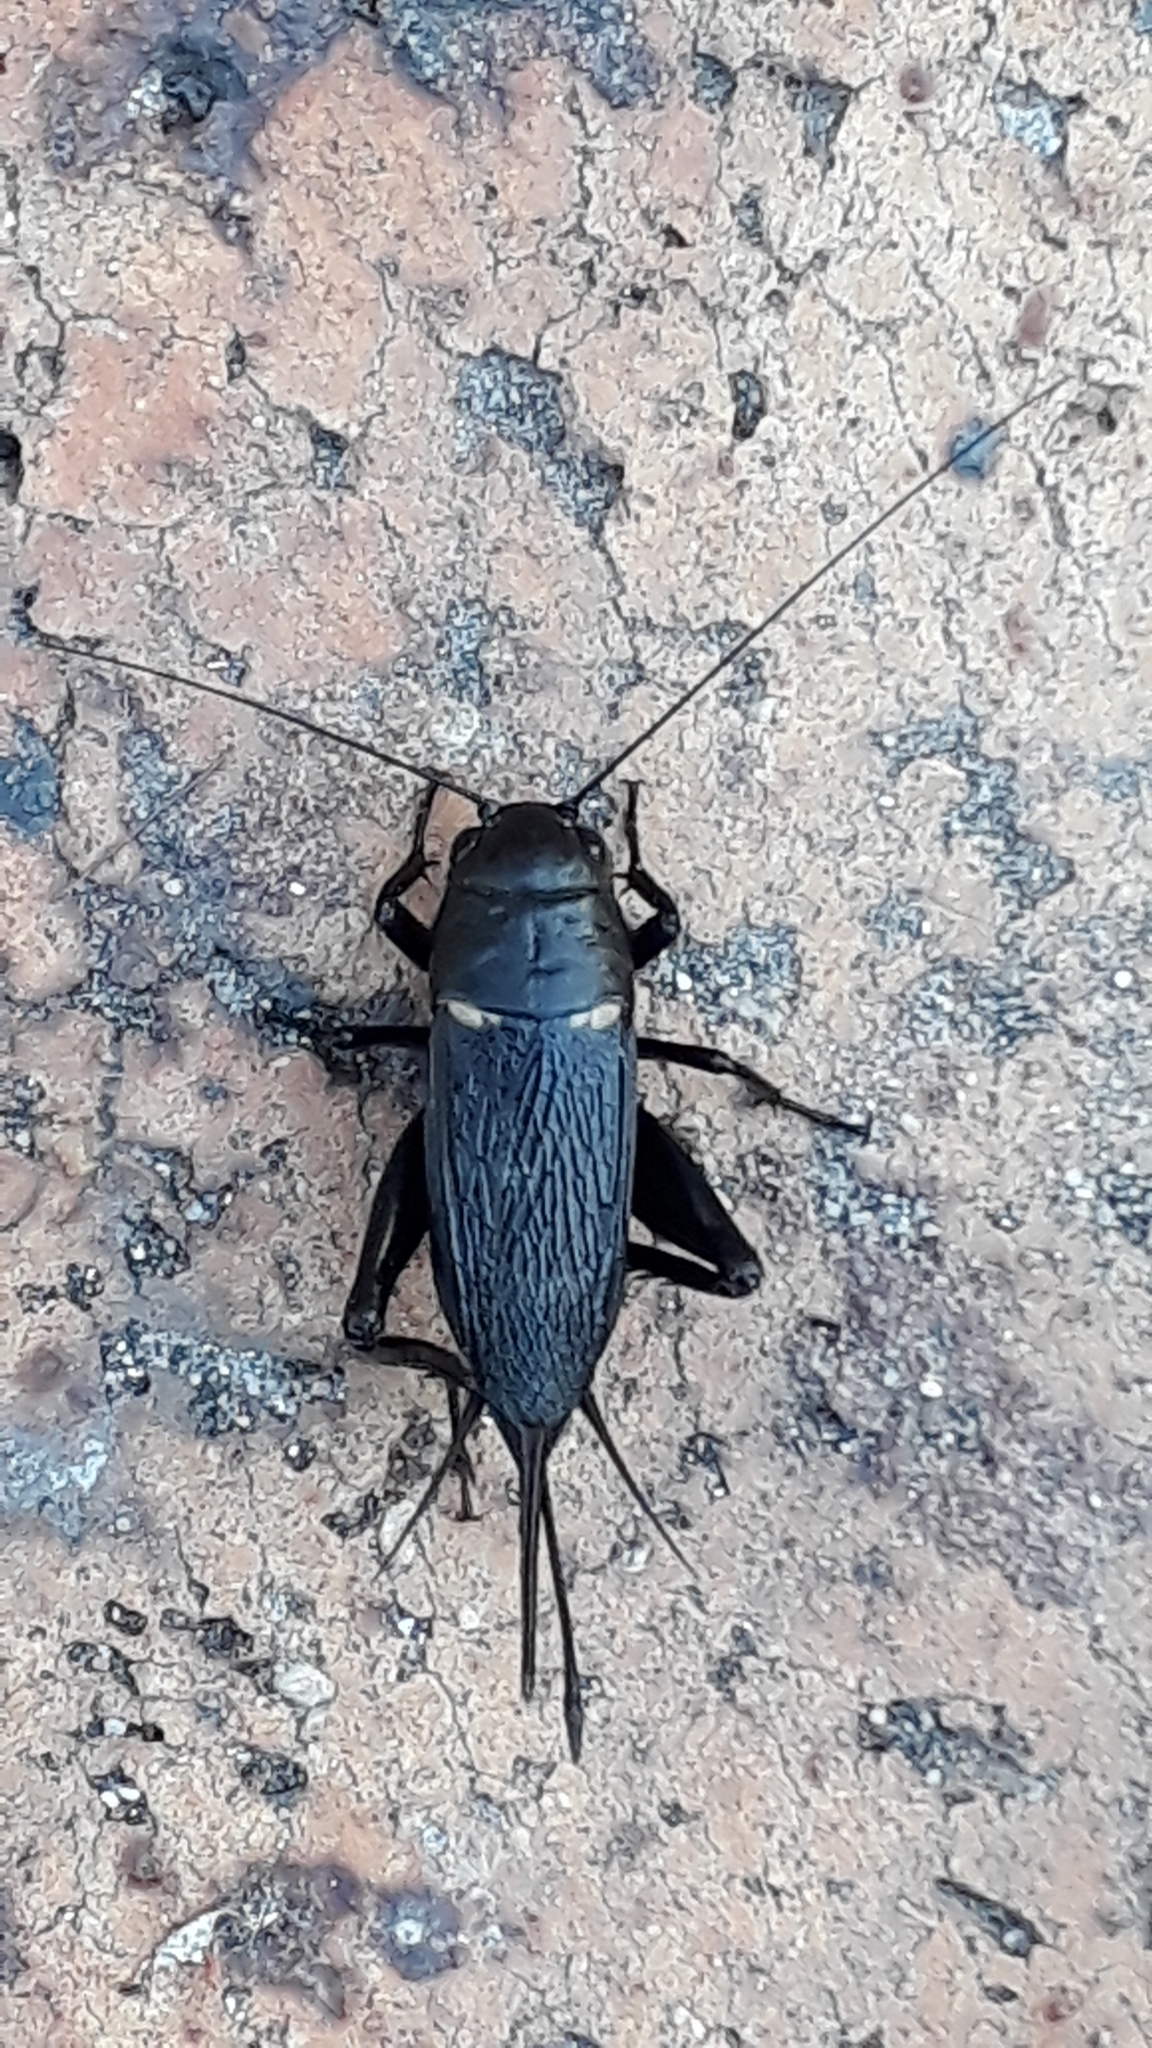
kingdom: Animalia
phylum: Arthropoda
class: Insecta
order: Orthoptera
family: Gryllidae
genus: Gryllus
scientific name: Gryllus bimaculatus
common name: Two-spotted cricket
